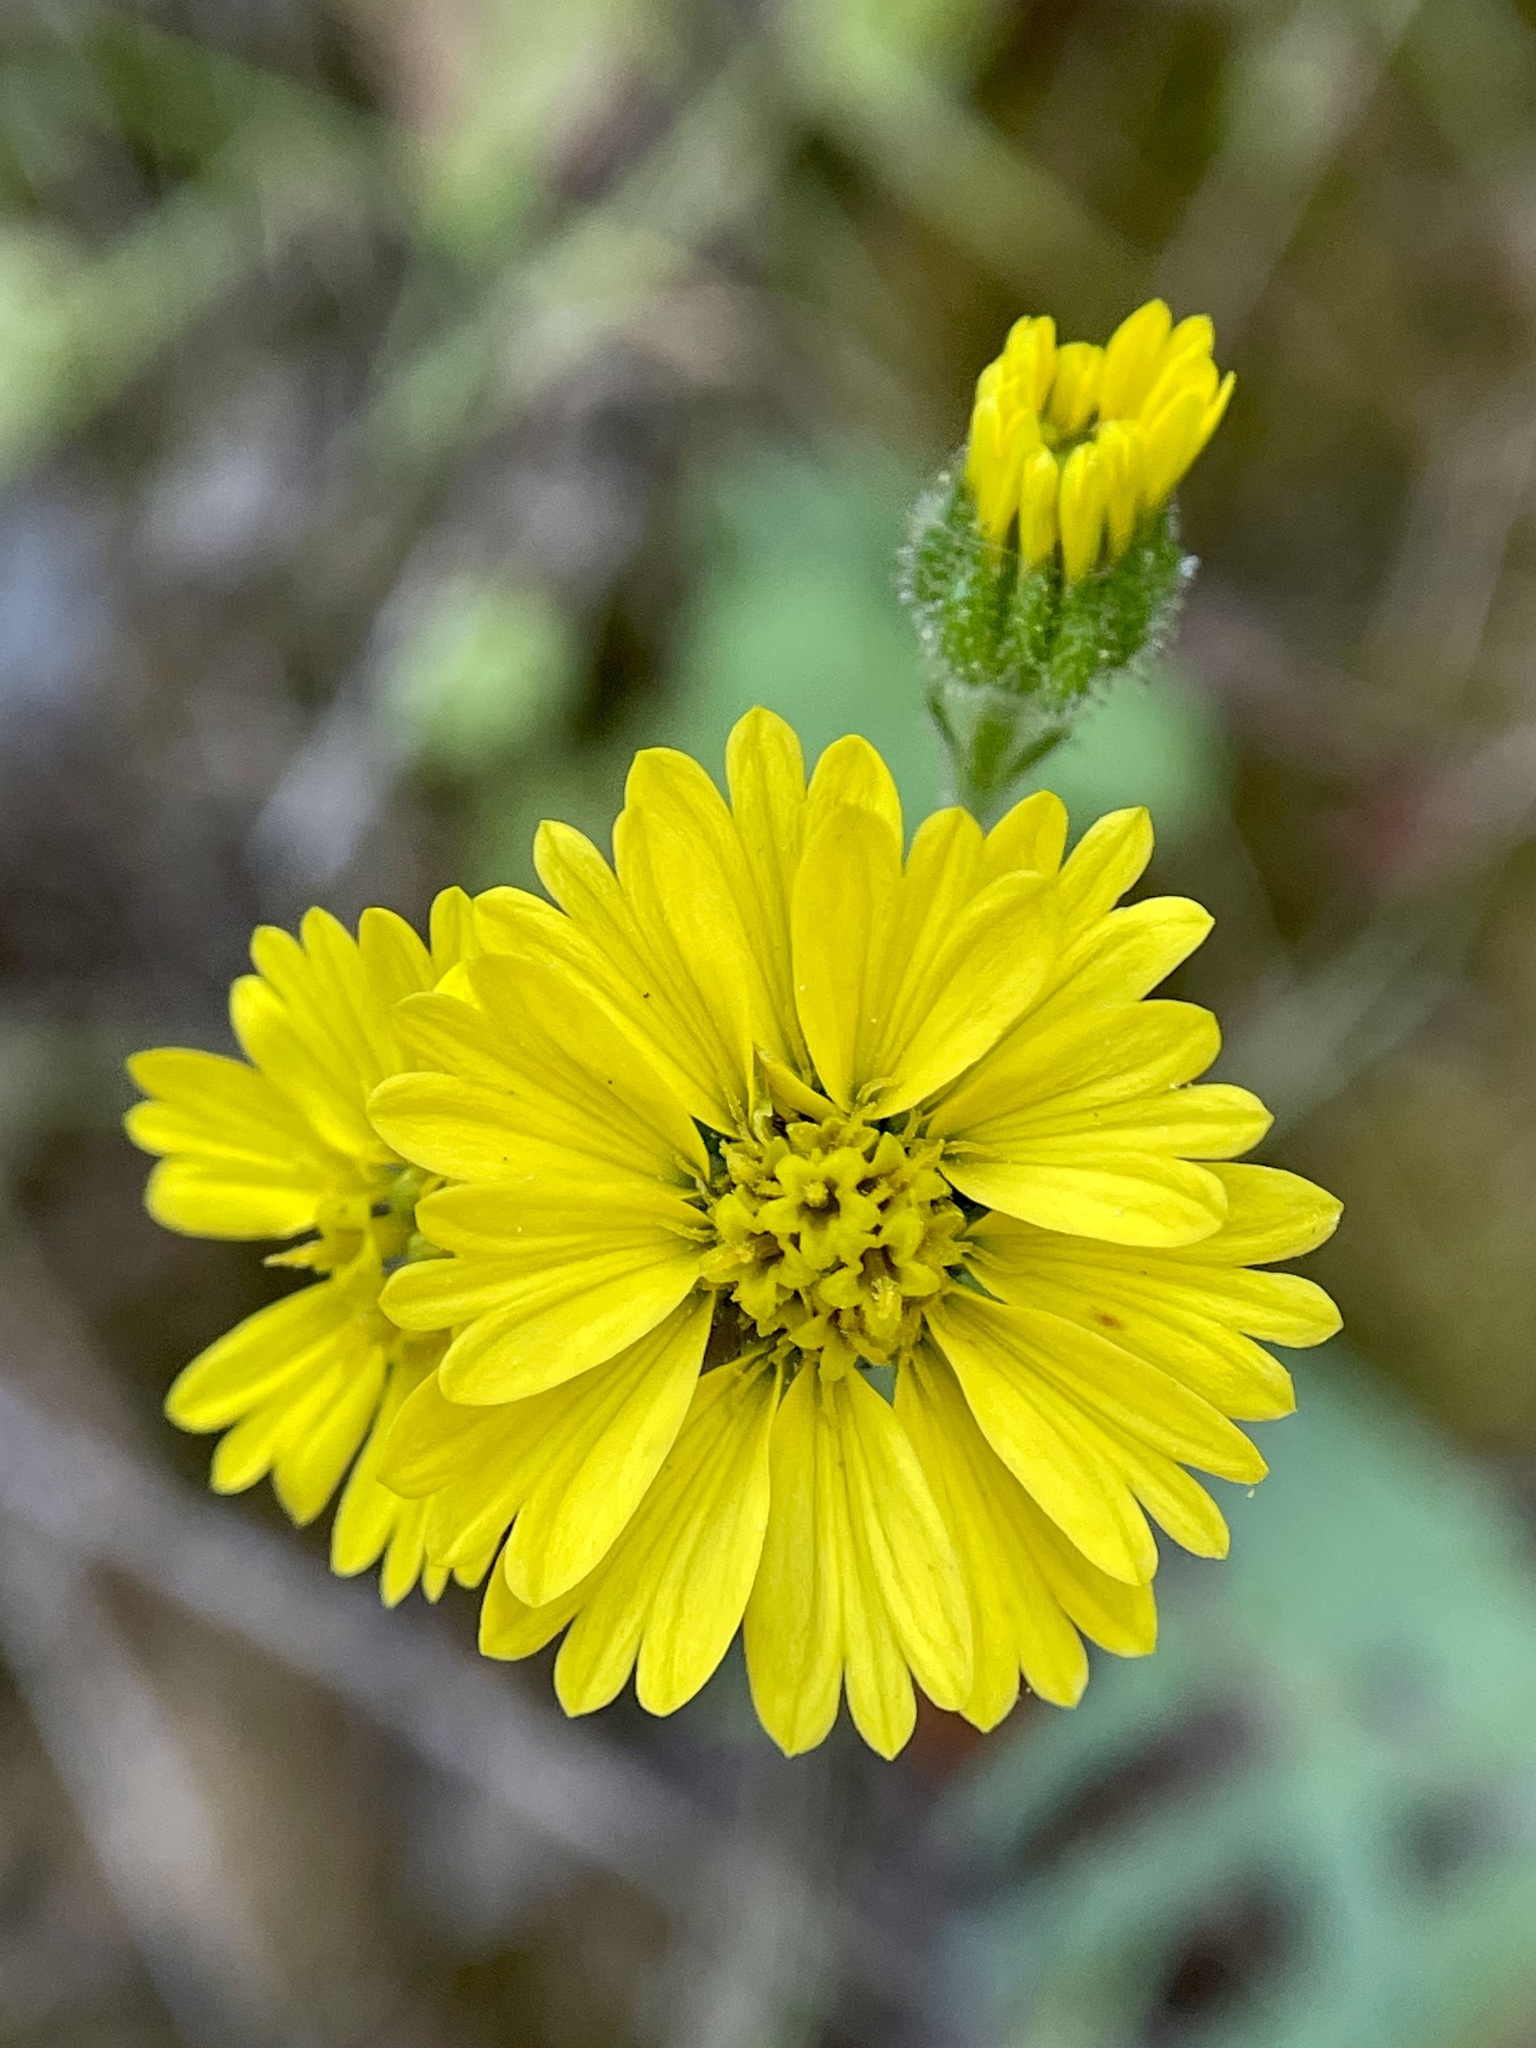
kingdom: Plantae
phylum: Tracheophyta
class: Magnoliopsida
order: Asterales
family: Asteraceae
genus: Anisocarpus
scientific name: Anisocarpus madioides
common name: Woodland madia
